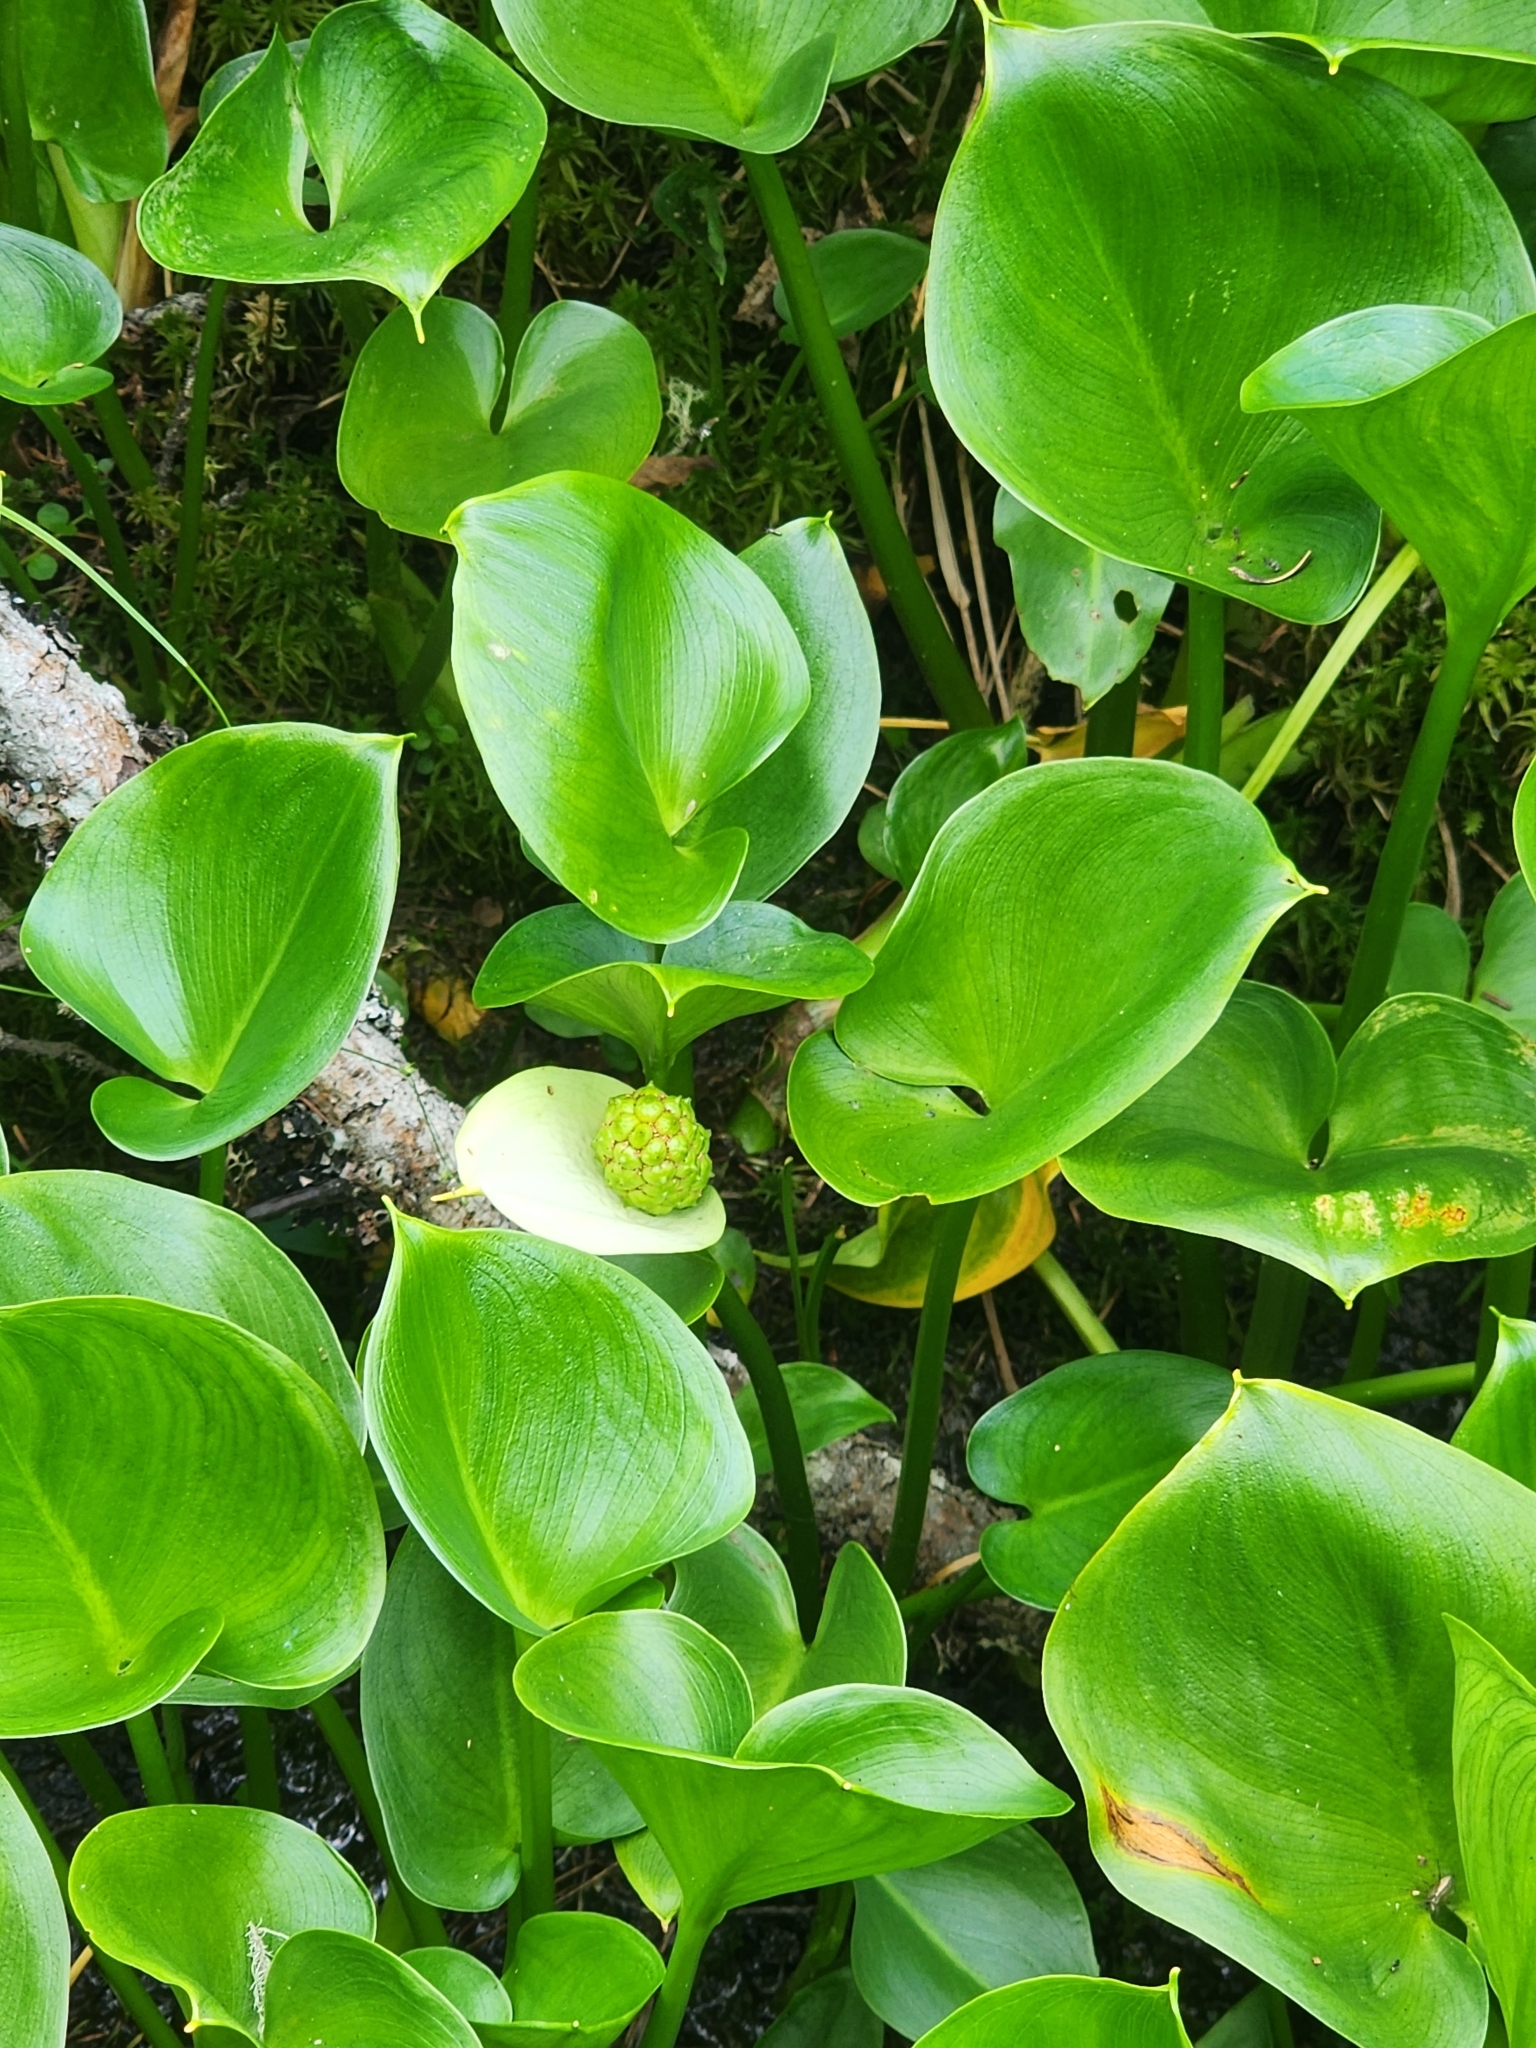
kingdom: Plantae
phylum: Tracheophyta
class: Liliopsida
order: Alismatales
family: Araceae
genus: Calla
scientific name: Calla palustris
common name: Bog arum
